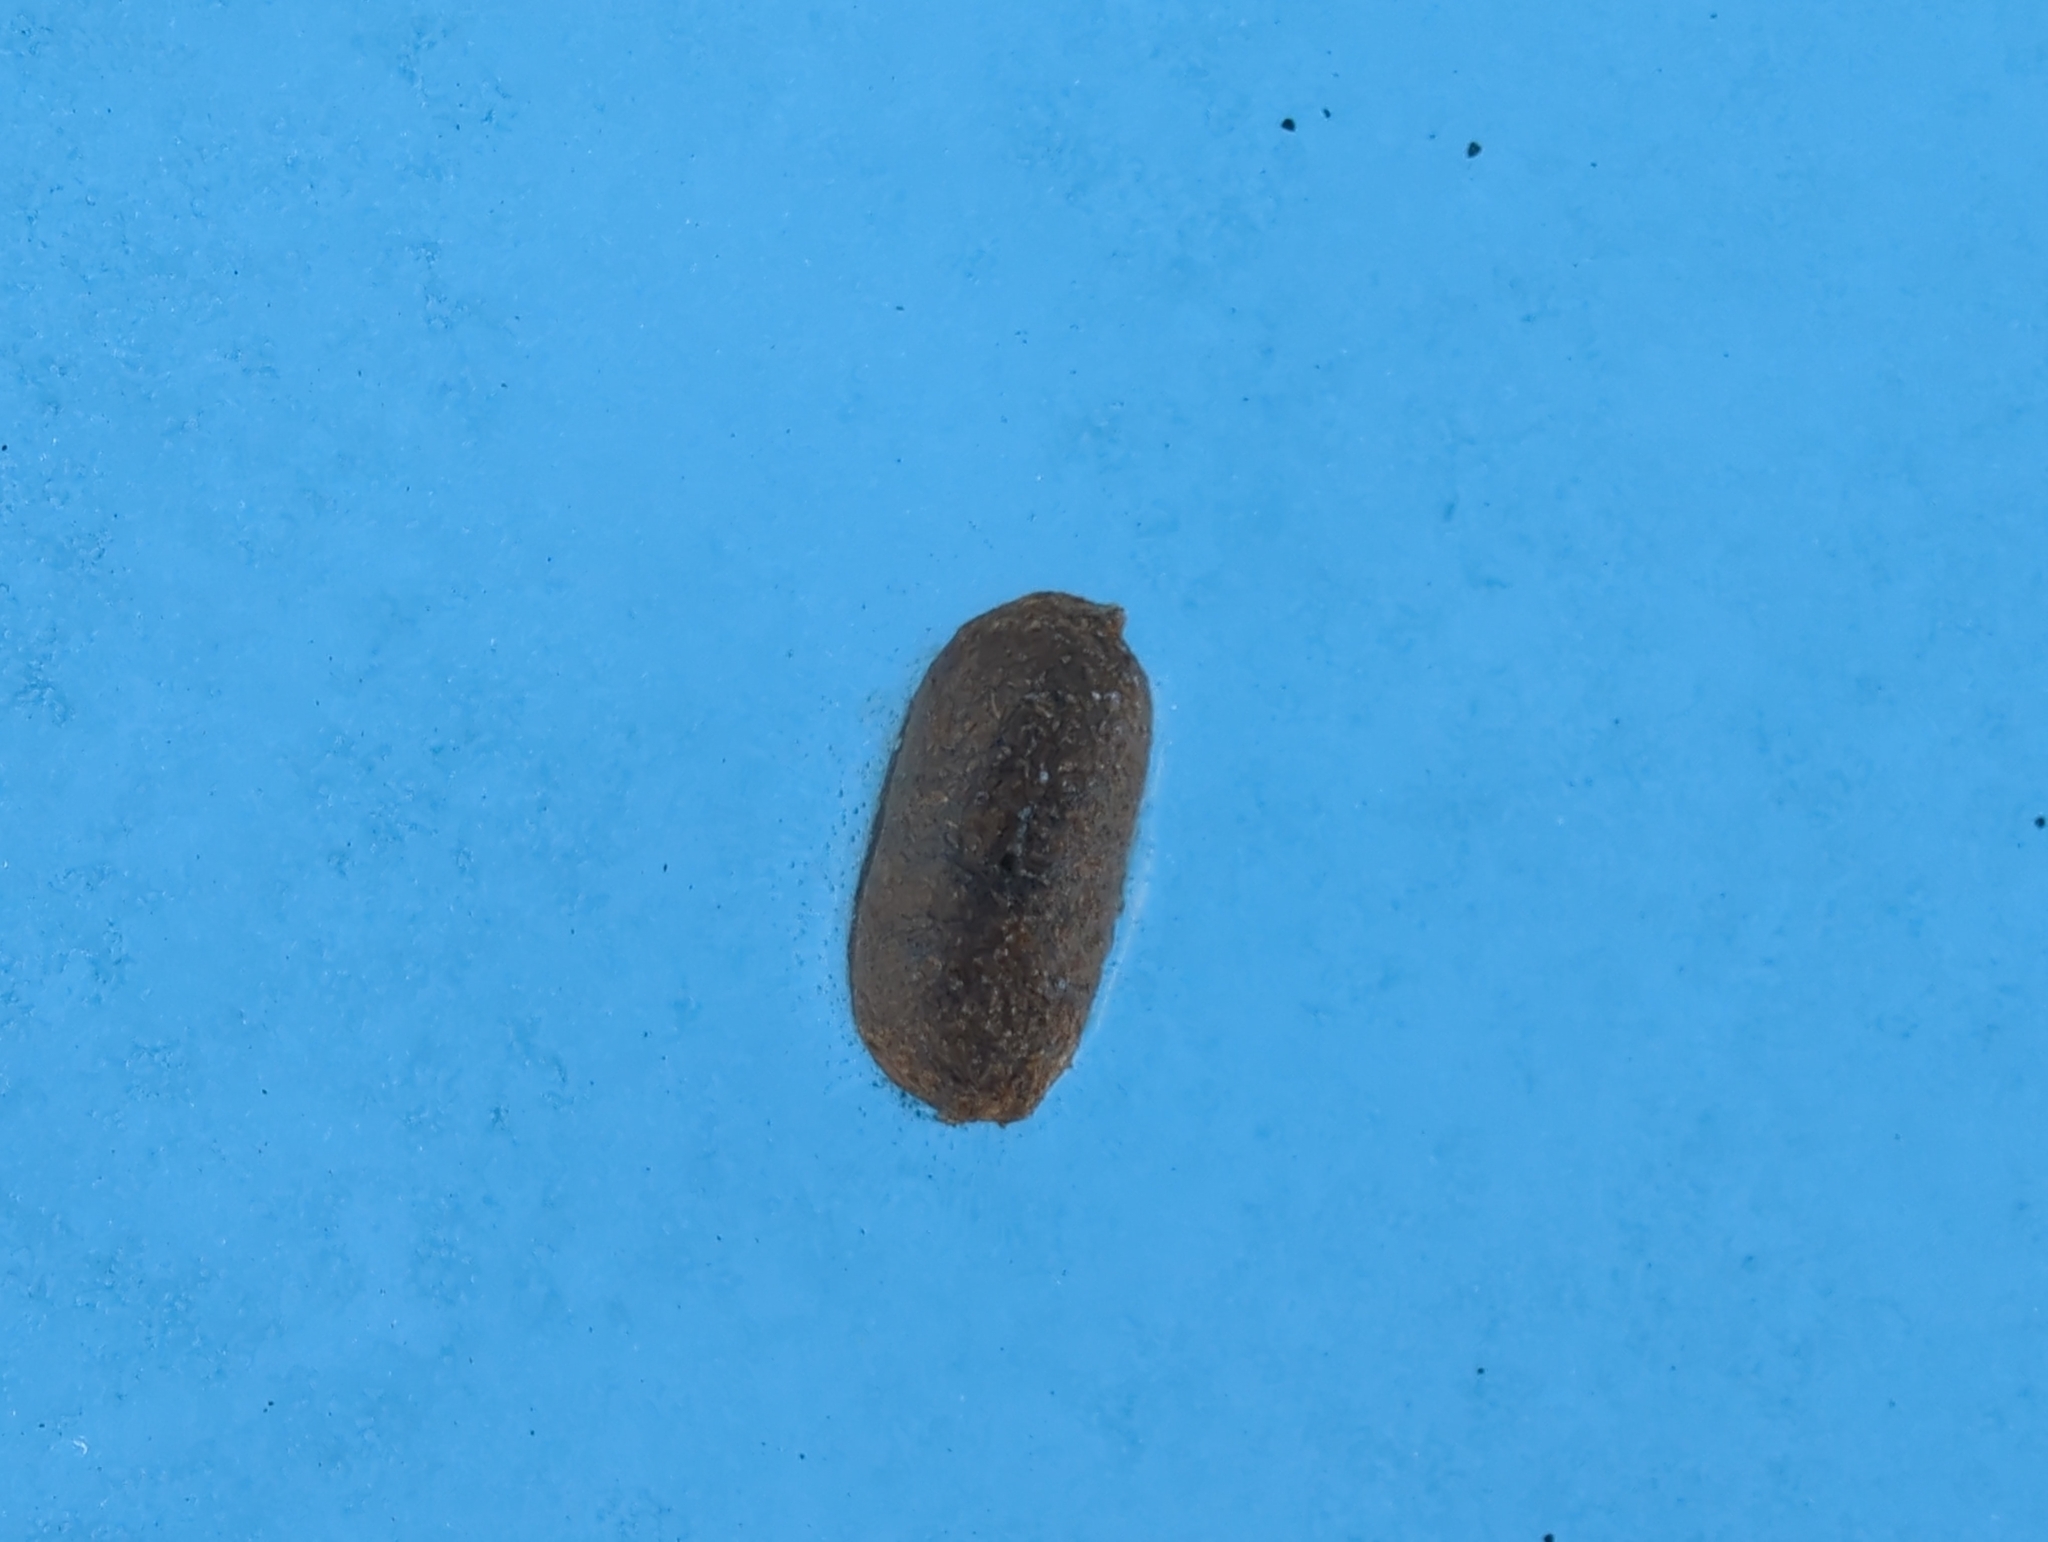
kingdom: Animalia
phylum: Chordata
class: Mammalia
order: Artiodactyla
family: Cervidae
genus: Alces
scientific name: Alces alces
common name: Moose
